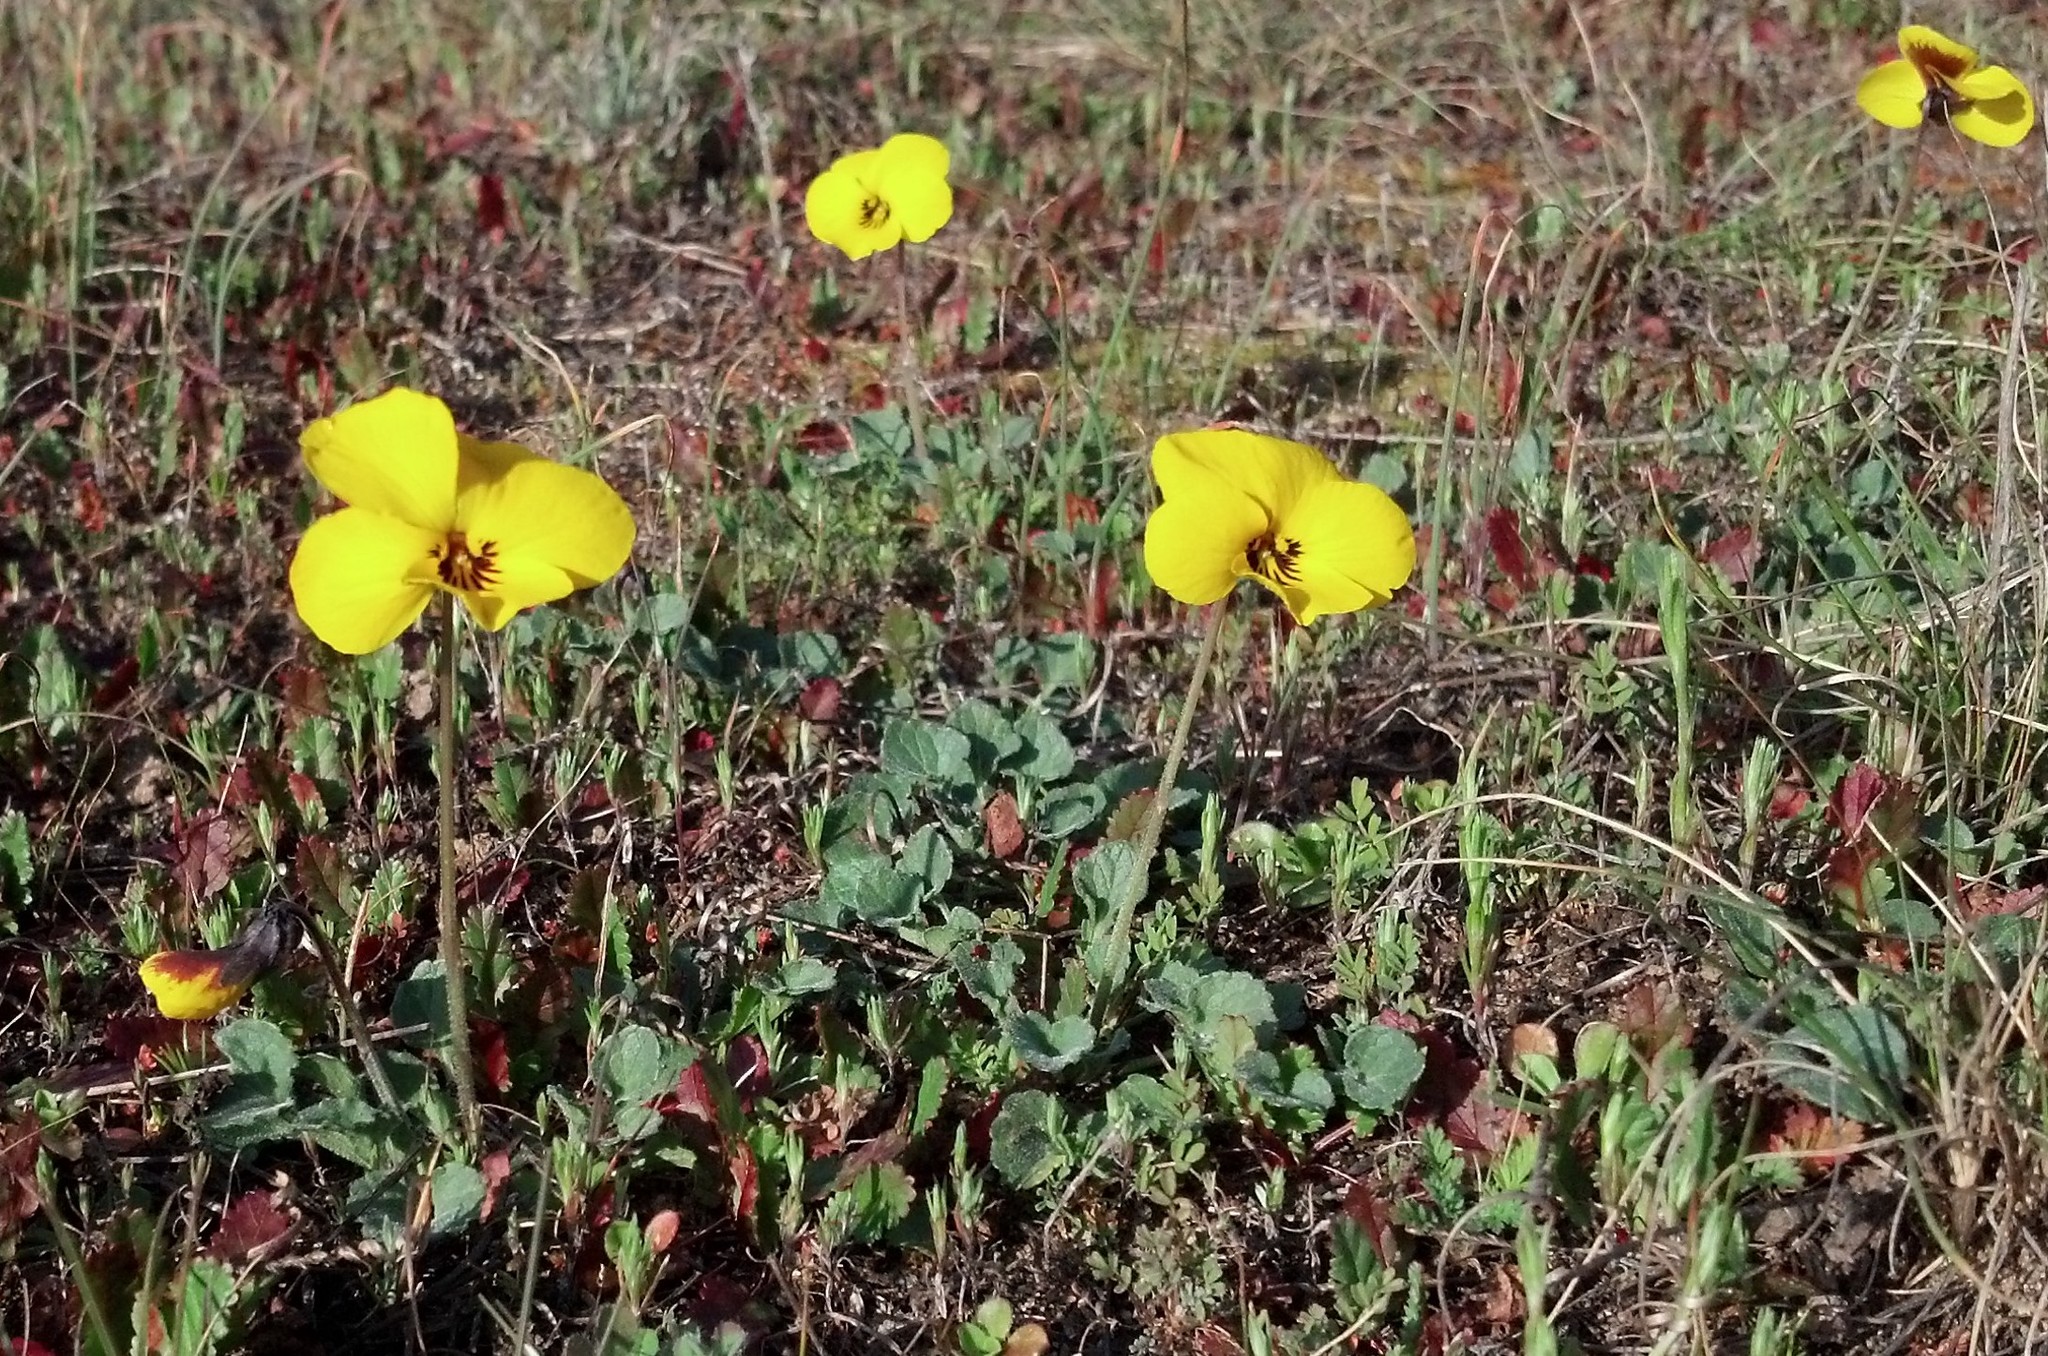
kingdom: Plantae
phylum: Tracheophyta
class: Magnoliopsida
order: Malpighiales
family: Violaceae
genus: Viola
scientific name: Viola pedunculata
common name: California golden violet
